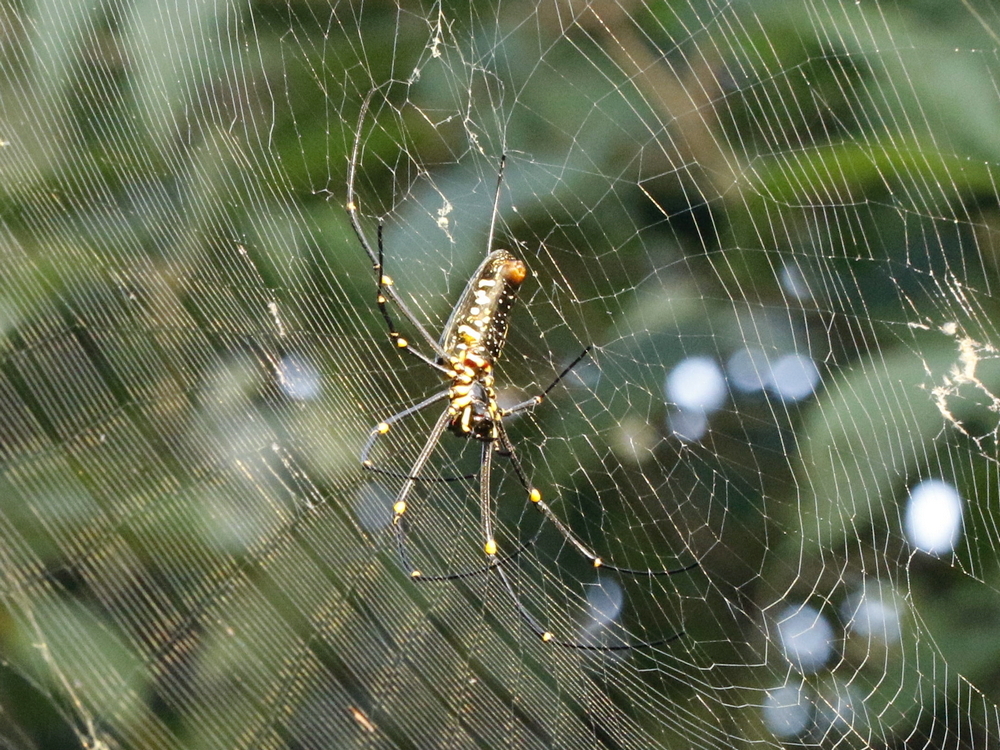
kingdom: Animalia
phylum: Arthropoda
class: Arachnida
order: Araneae
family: Araneidae
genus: Nephila
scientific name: Nephila pilipes
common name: Giant golden orb weaver
